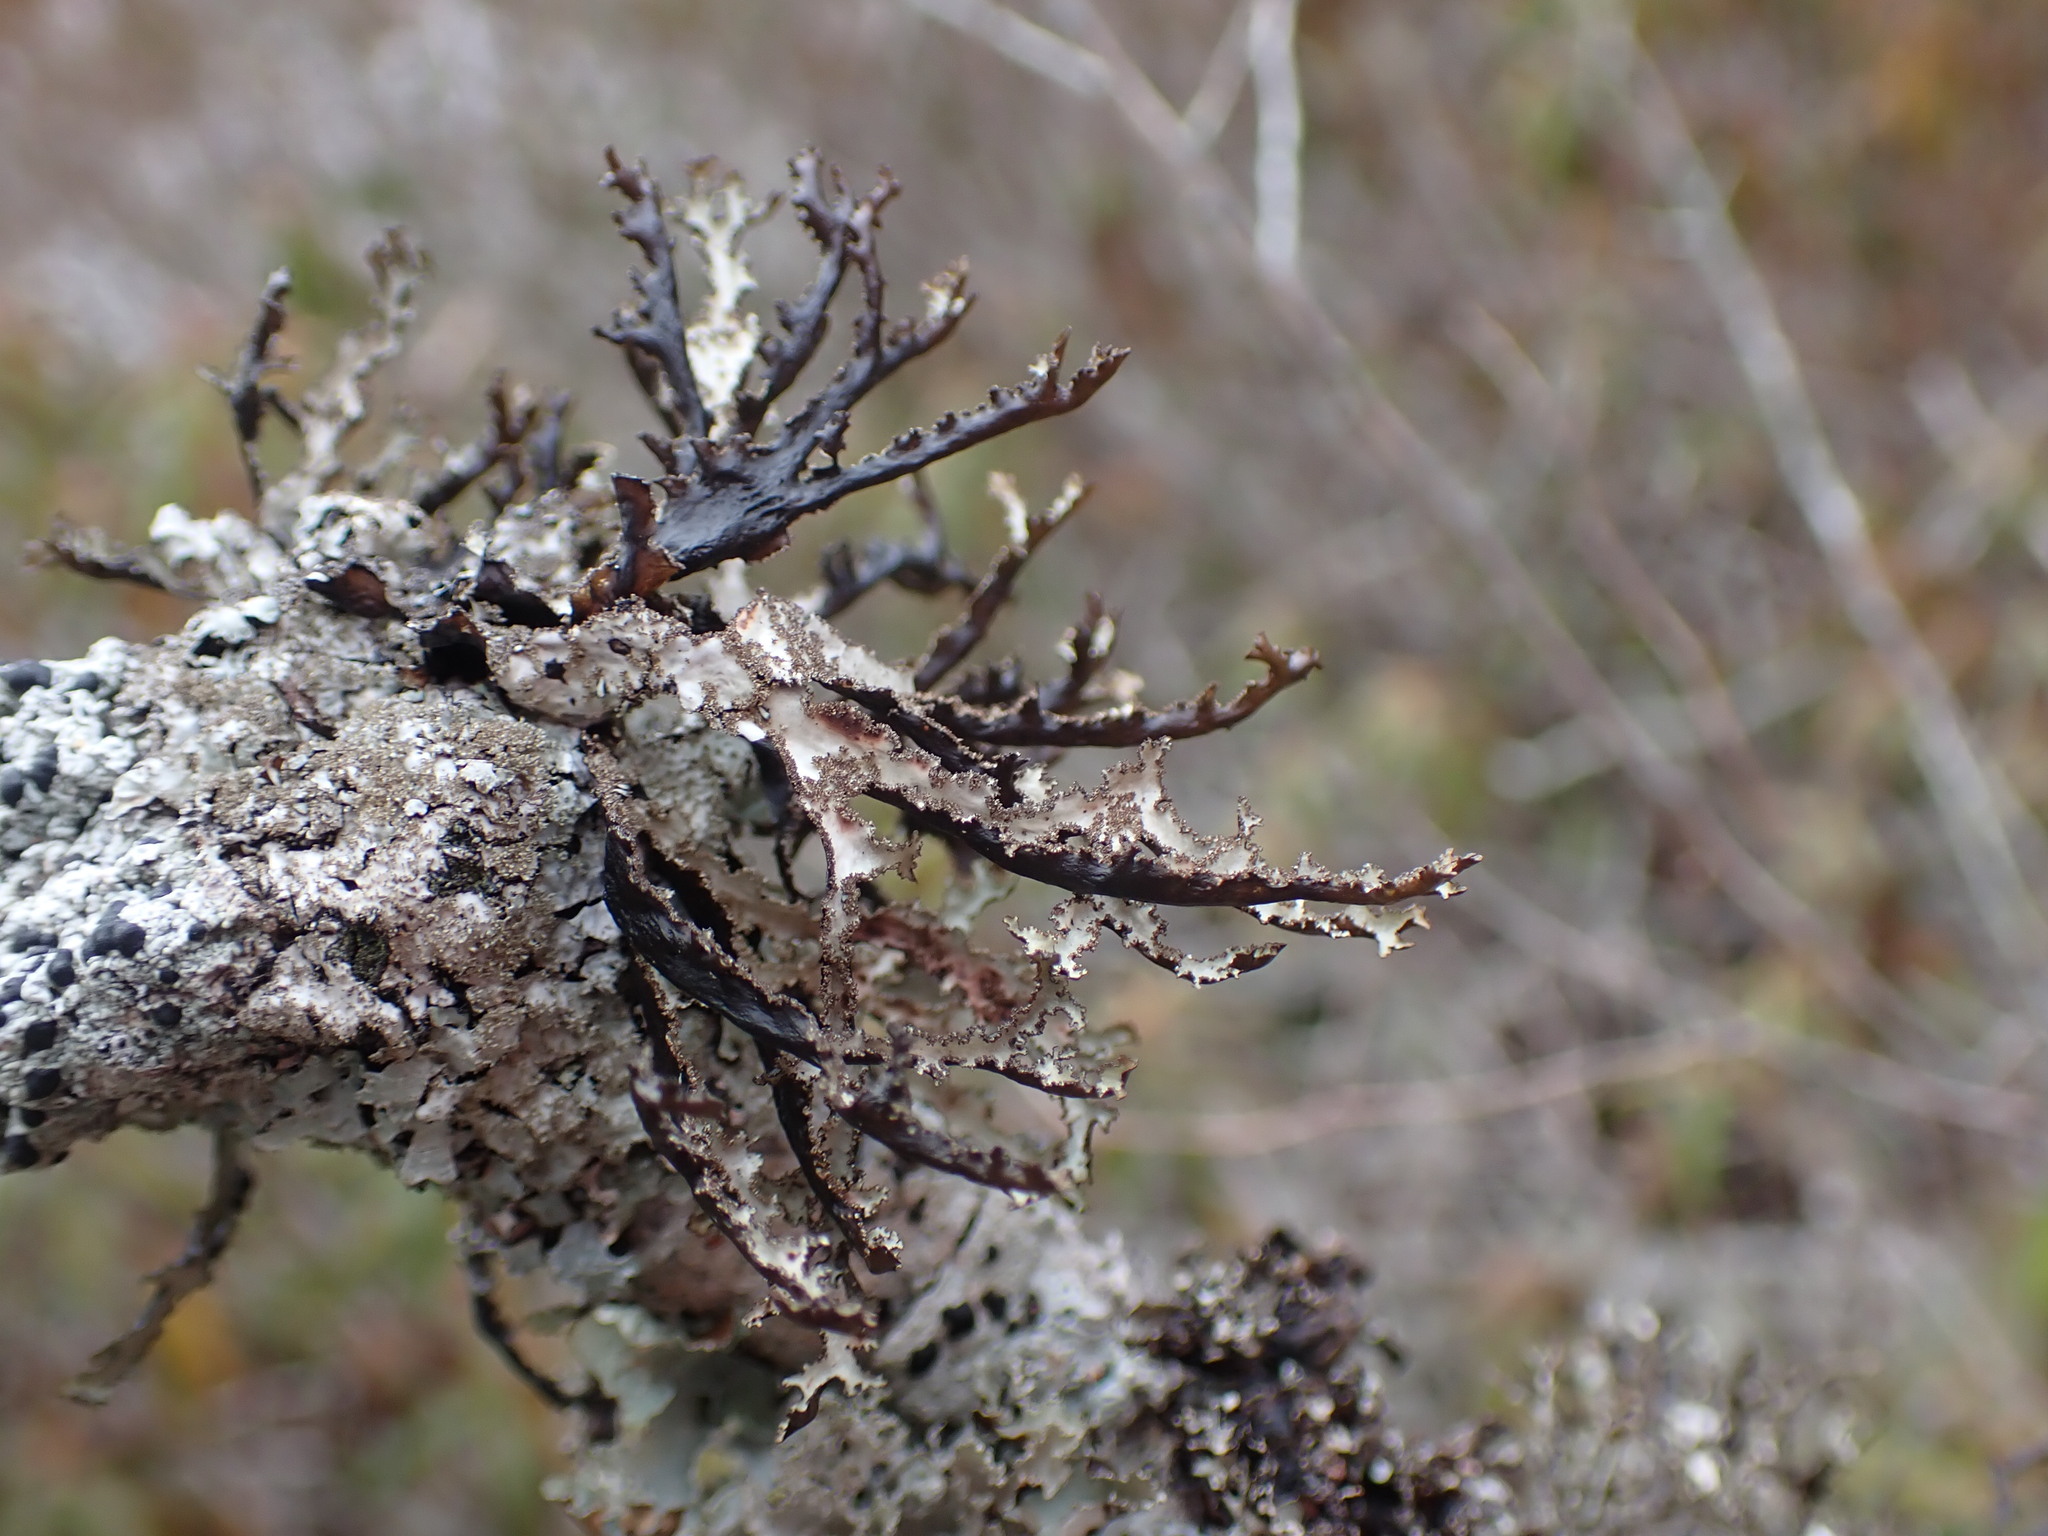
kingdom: Fungi
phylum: Ascomycota
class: Lecanoromycetes
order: Lecanorales
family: Parmeliaceae
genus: Platismatia
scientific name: Platismatia herrei
